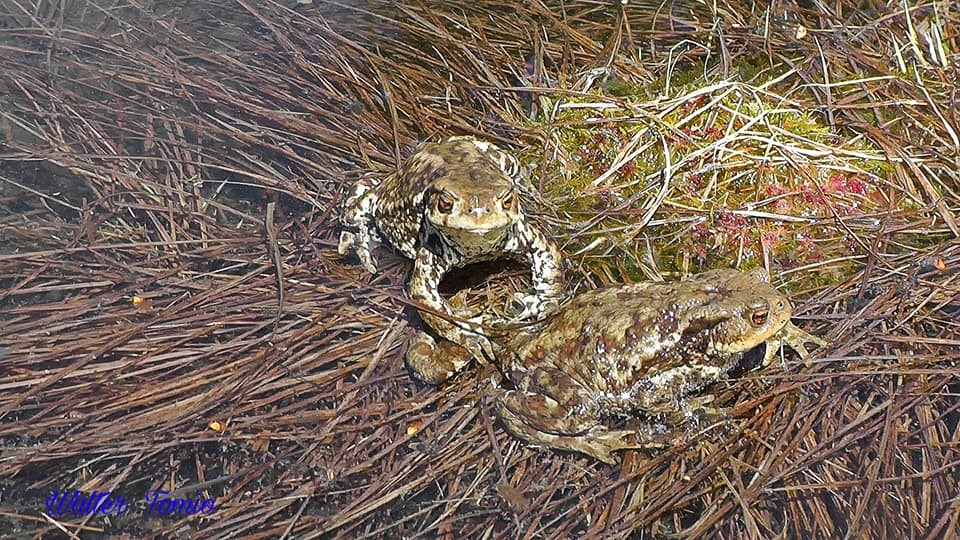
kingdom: Animalia
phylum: Chordata
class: Amphibia
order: Anura
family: Bufonidae
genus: Bufo
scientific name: Bufo bufo
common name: Common toad
